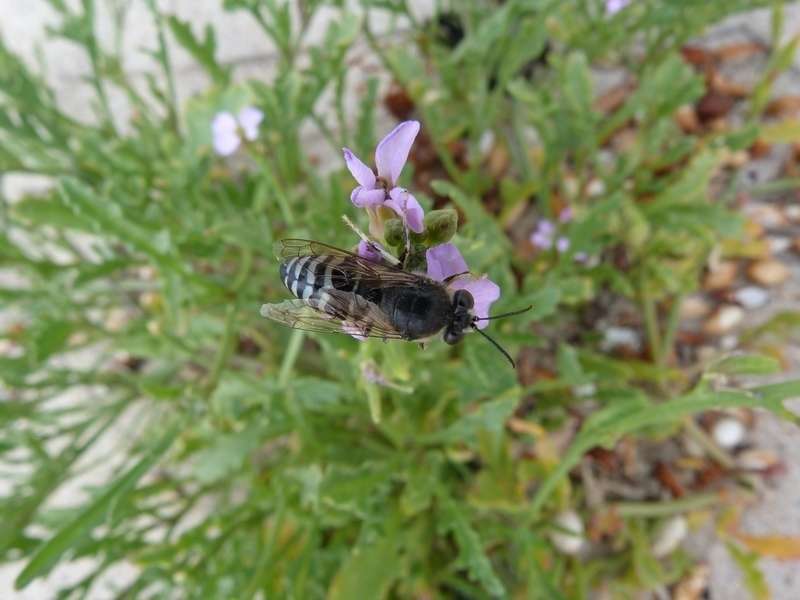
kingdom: Plantae
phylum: Tracheophyta
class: Magnoliopsida
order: Brassicales
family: Brassicaceae
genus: Cakile
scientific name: Cakile maritima
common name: Sea rocket
